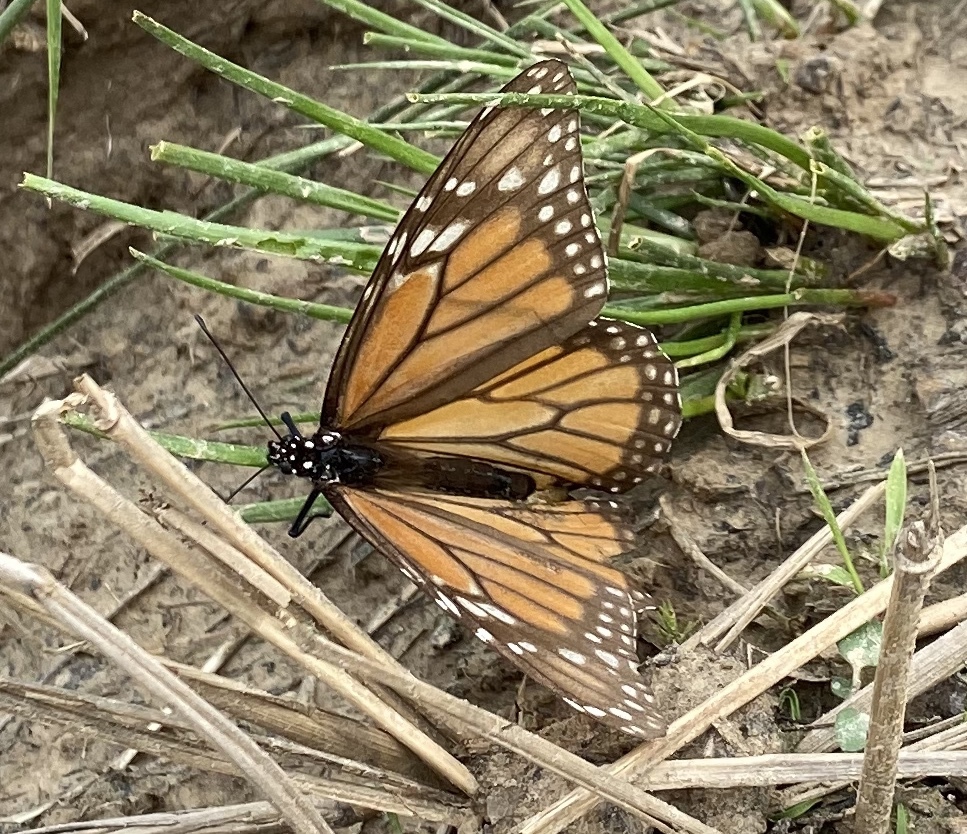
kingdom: Animalia
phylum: Arthropoda
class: Insecta
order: Lepidoptera
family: Nymphalidae
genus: Danaus
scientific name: Danaus plexippus
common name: Monarch
